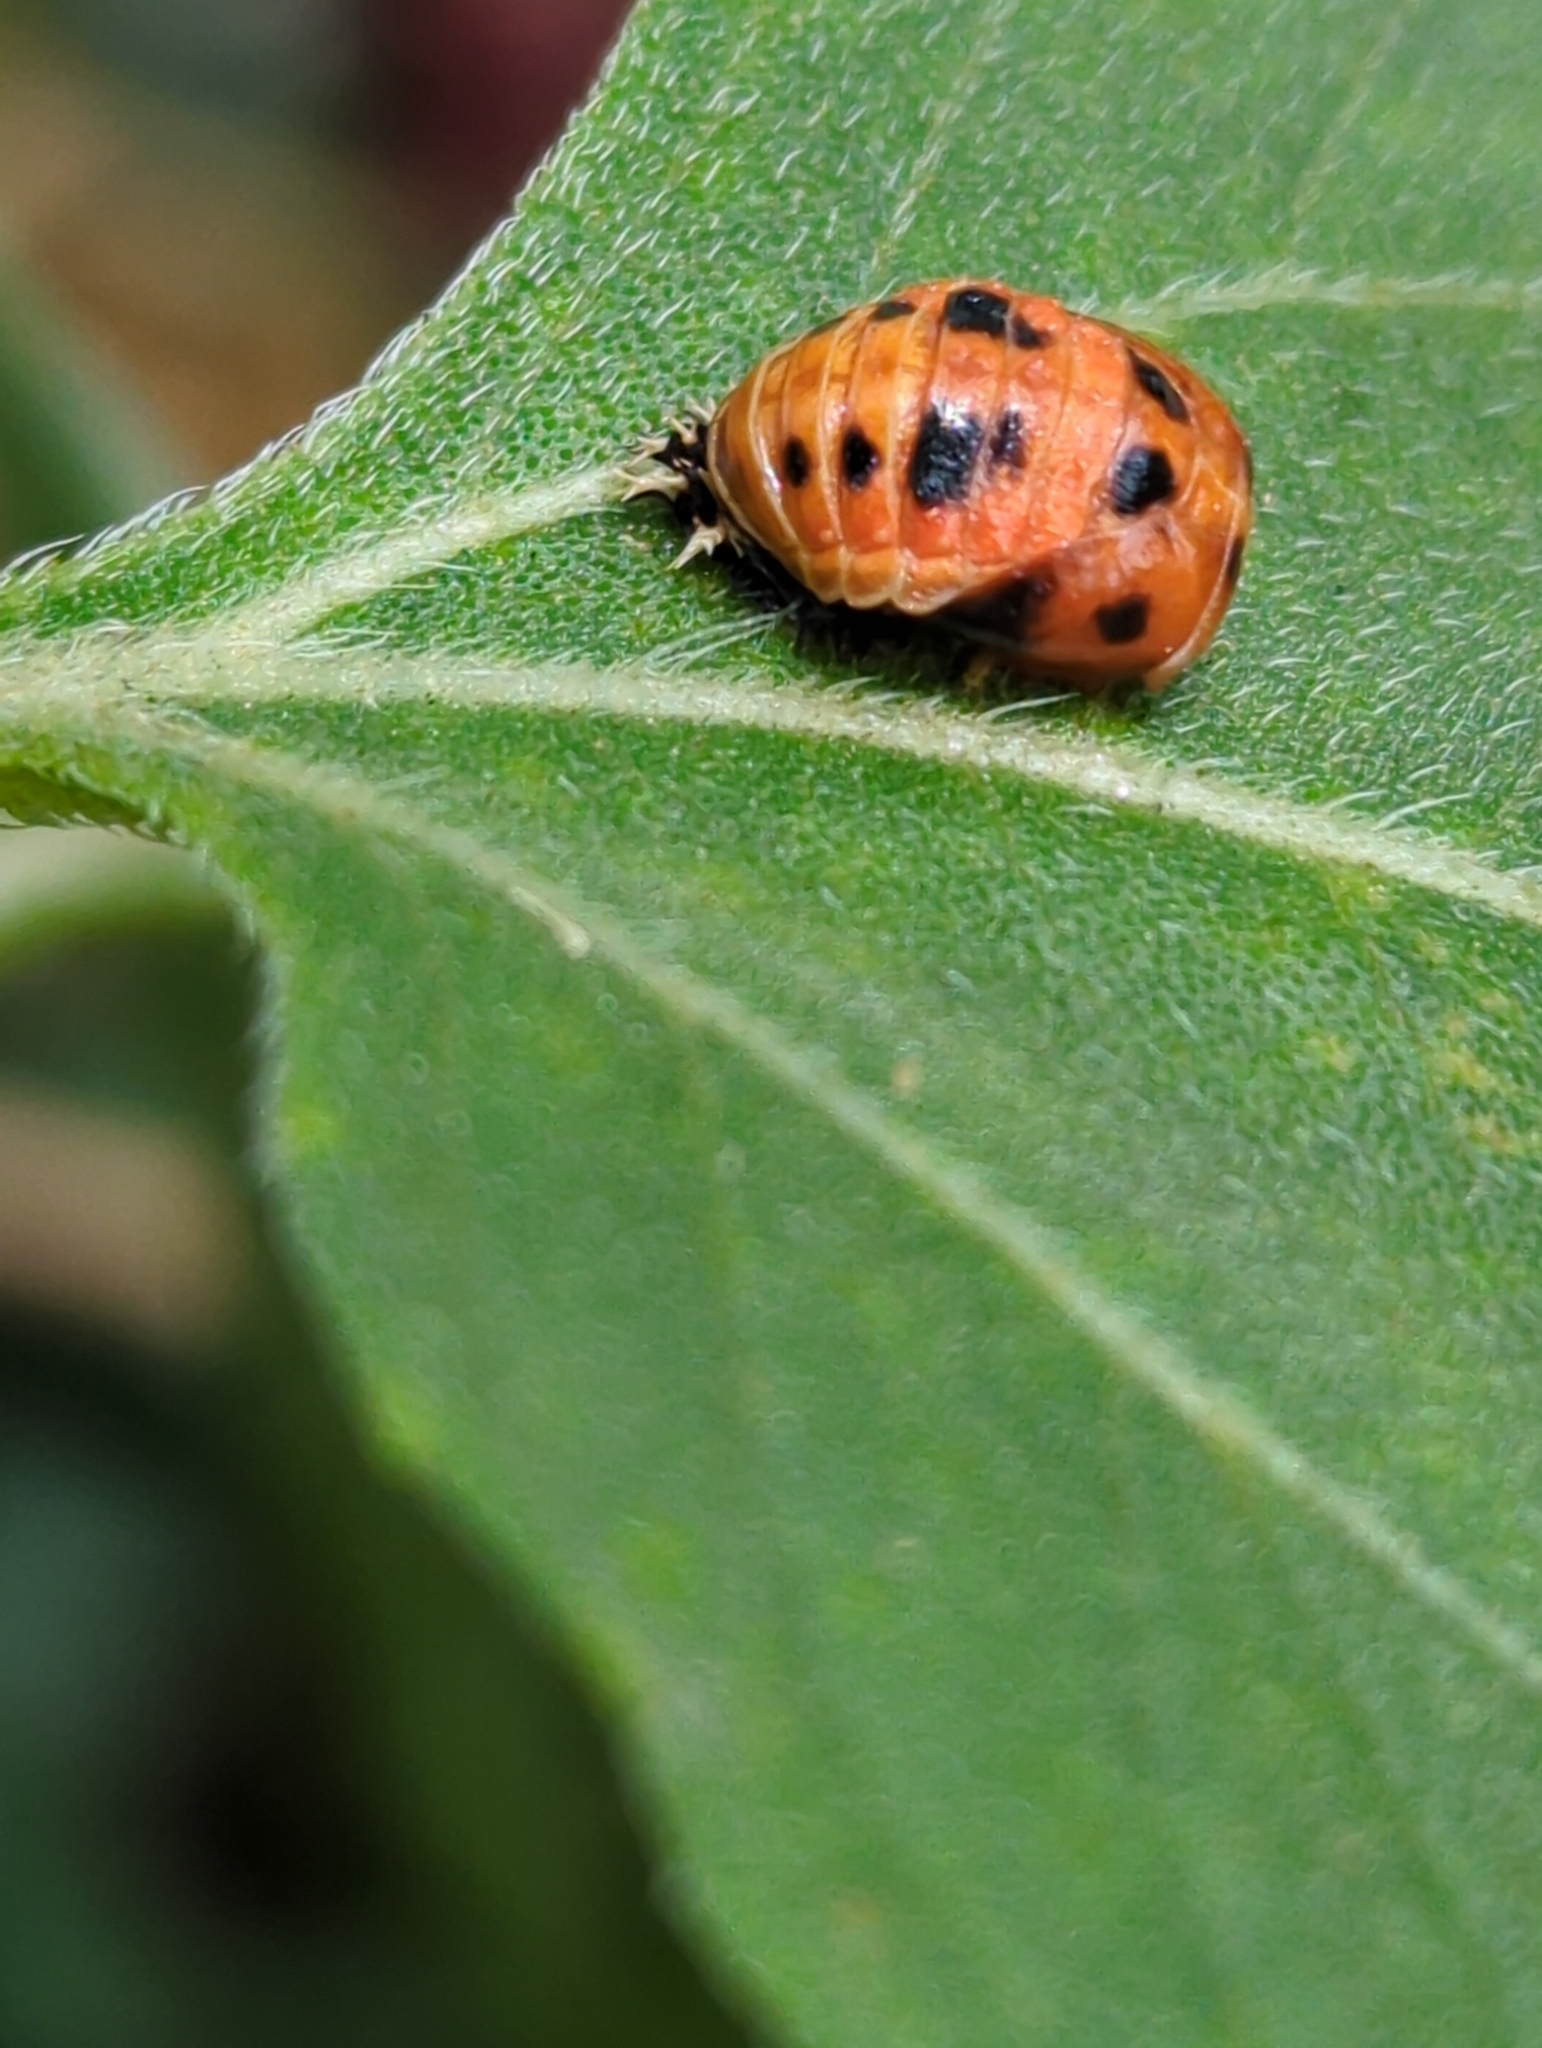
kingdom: Animalia
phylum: Arthropoda
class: Insecta
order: Coleoptera
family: Coccinellidae
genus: Harmonia
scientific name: Harmonia axyridis
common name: Harlequin ladybird
